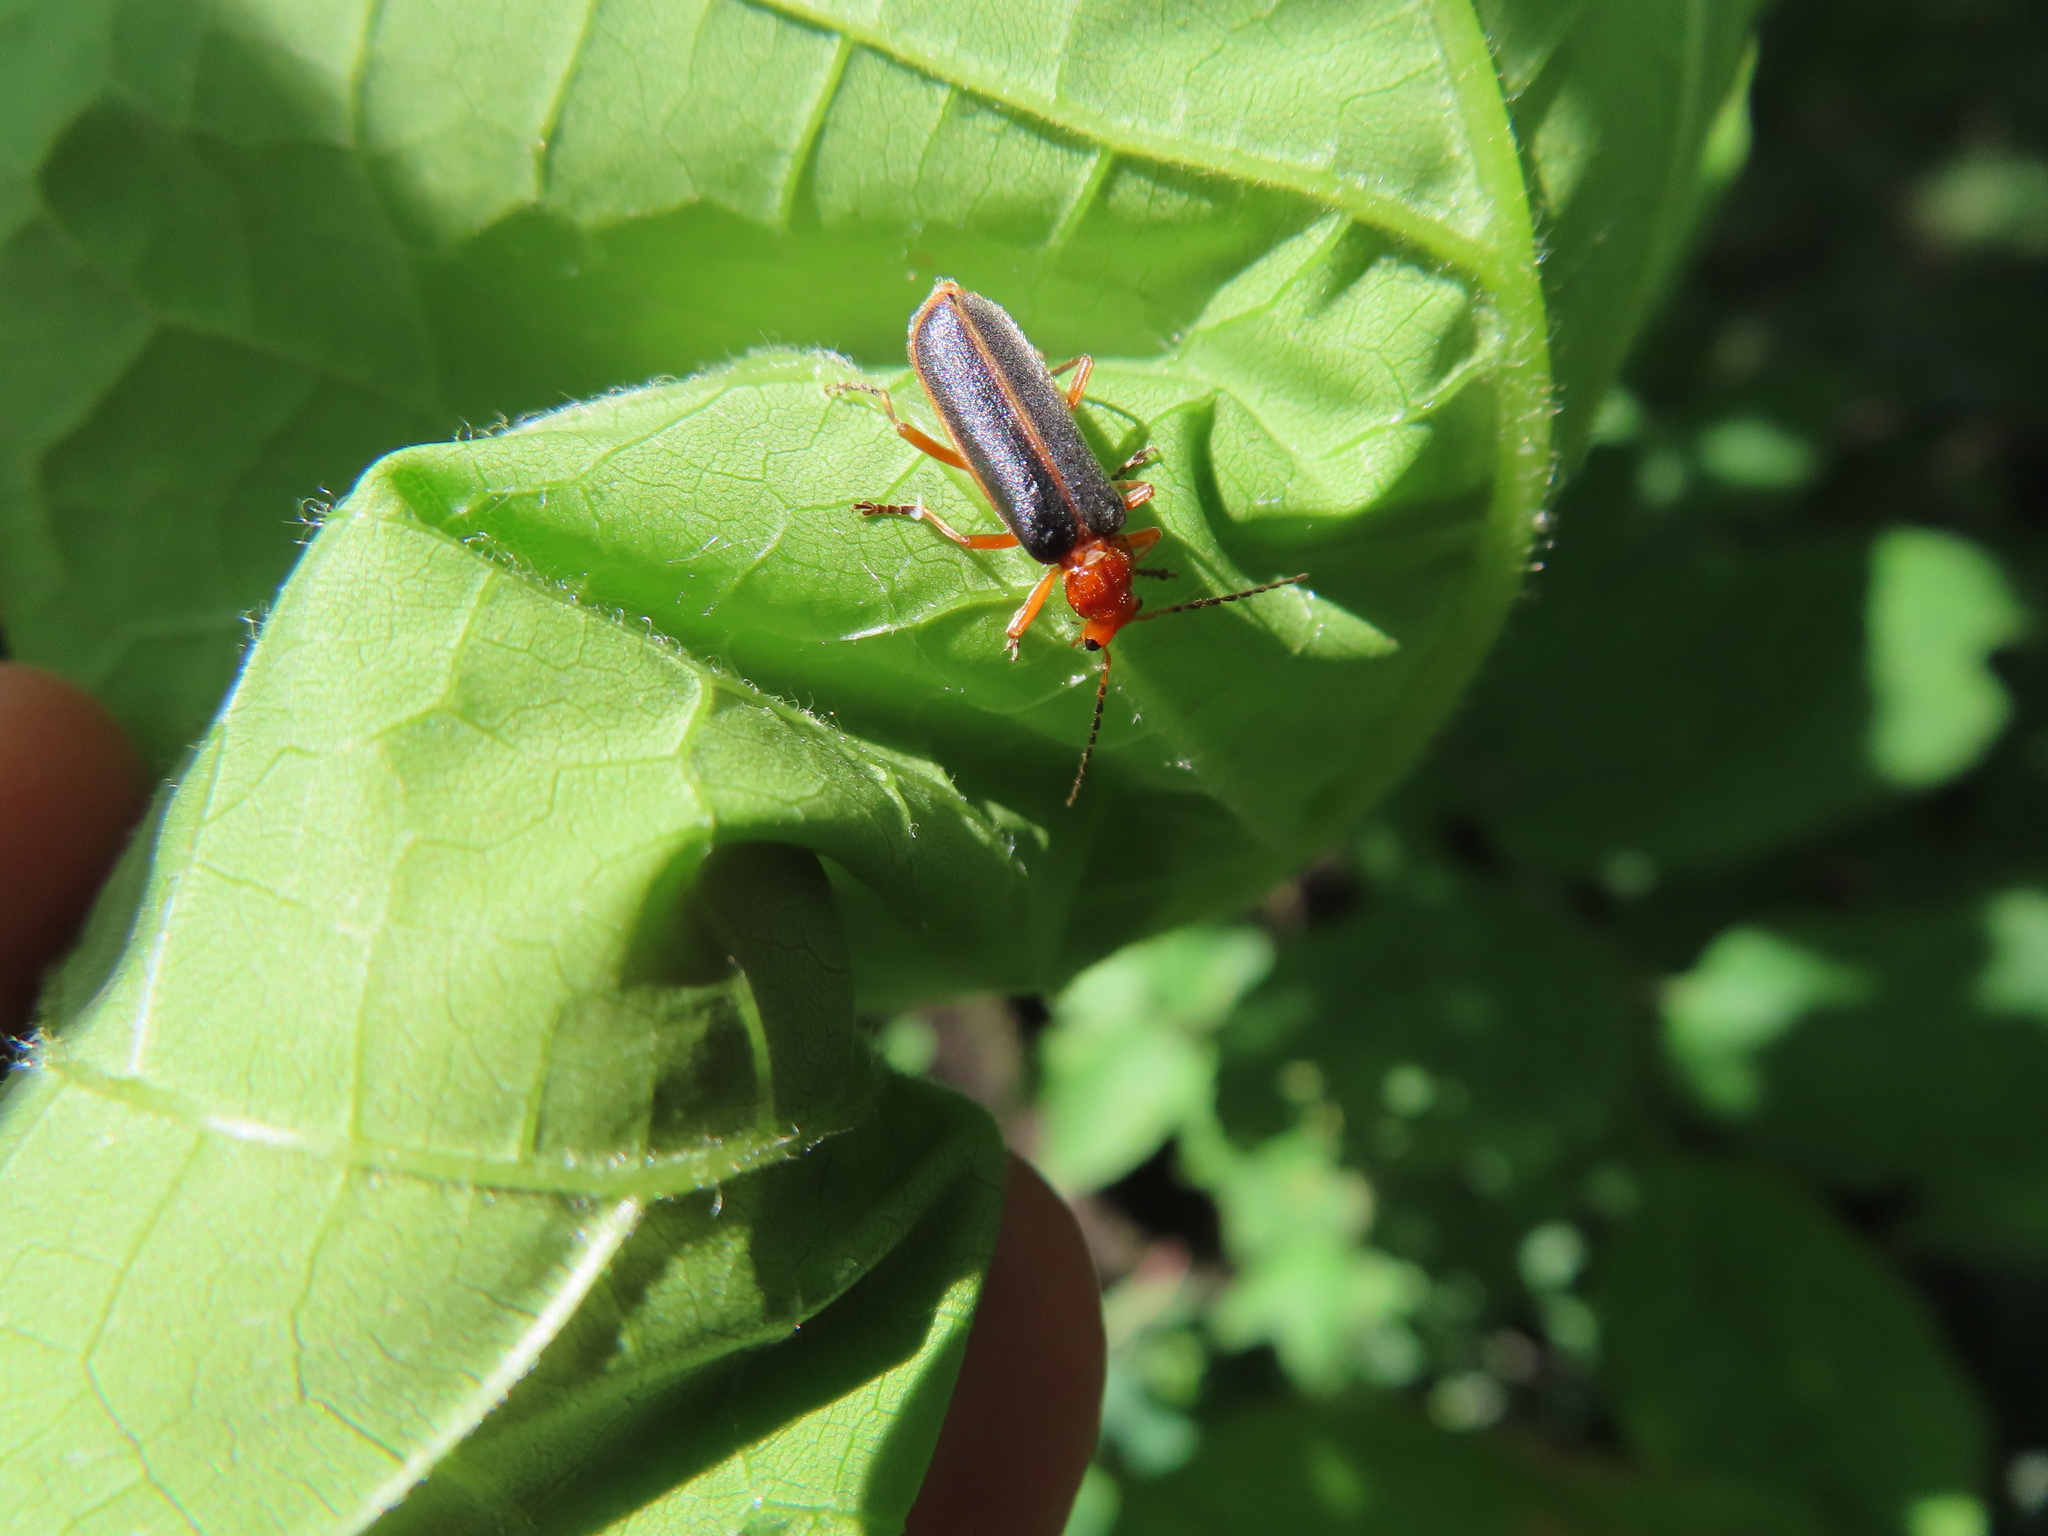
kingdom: Animalia
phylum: Arthropoda
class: Insecta
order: Coleoptera
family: Cantharidae
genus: Podabrus
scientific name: Podabrus tomentosus
